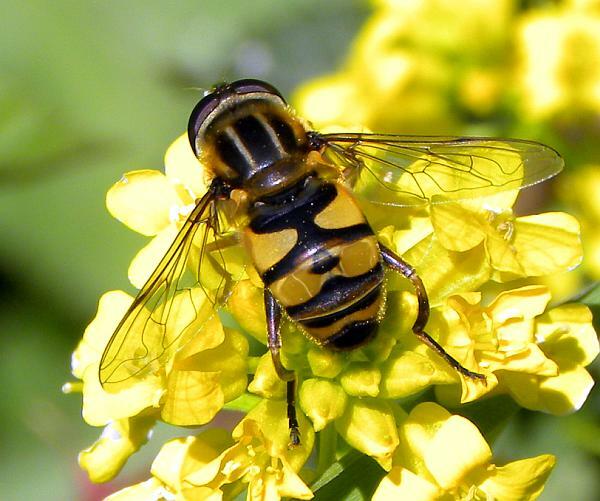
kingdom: Animalia
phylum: Arthropoda
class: Insecta
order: Diptera
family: Syrphidae
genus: Helophilus
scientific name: Helophilus fasciatus
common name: Narrow-headed marsh fly
